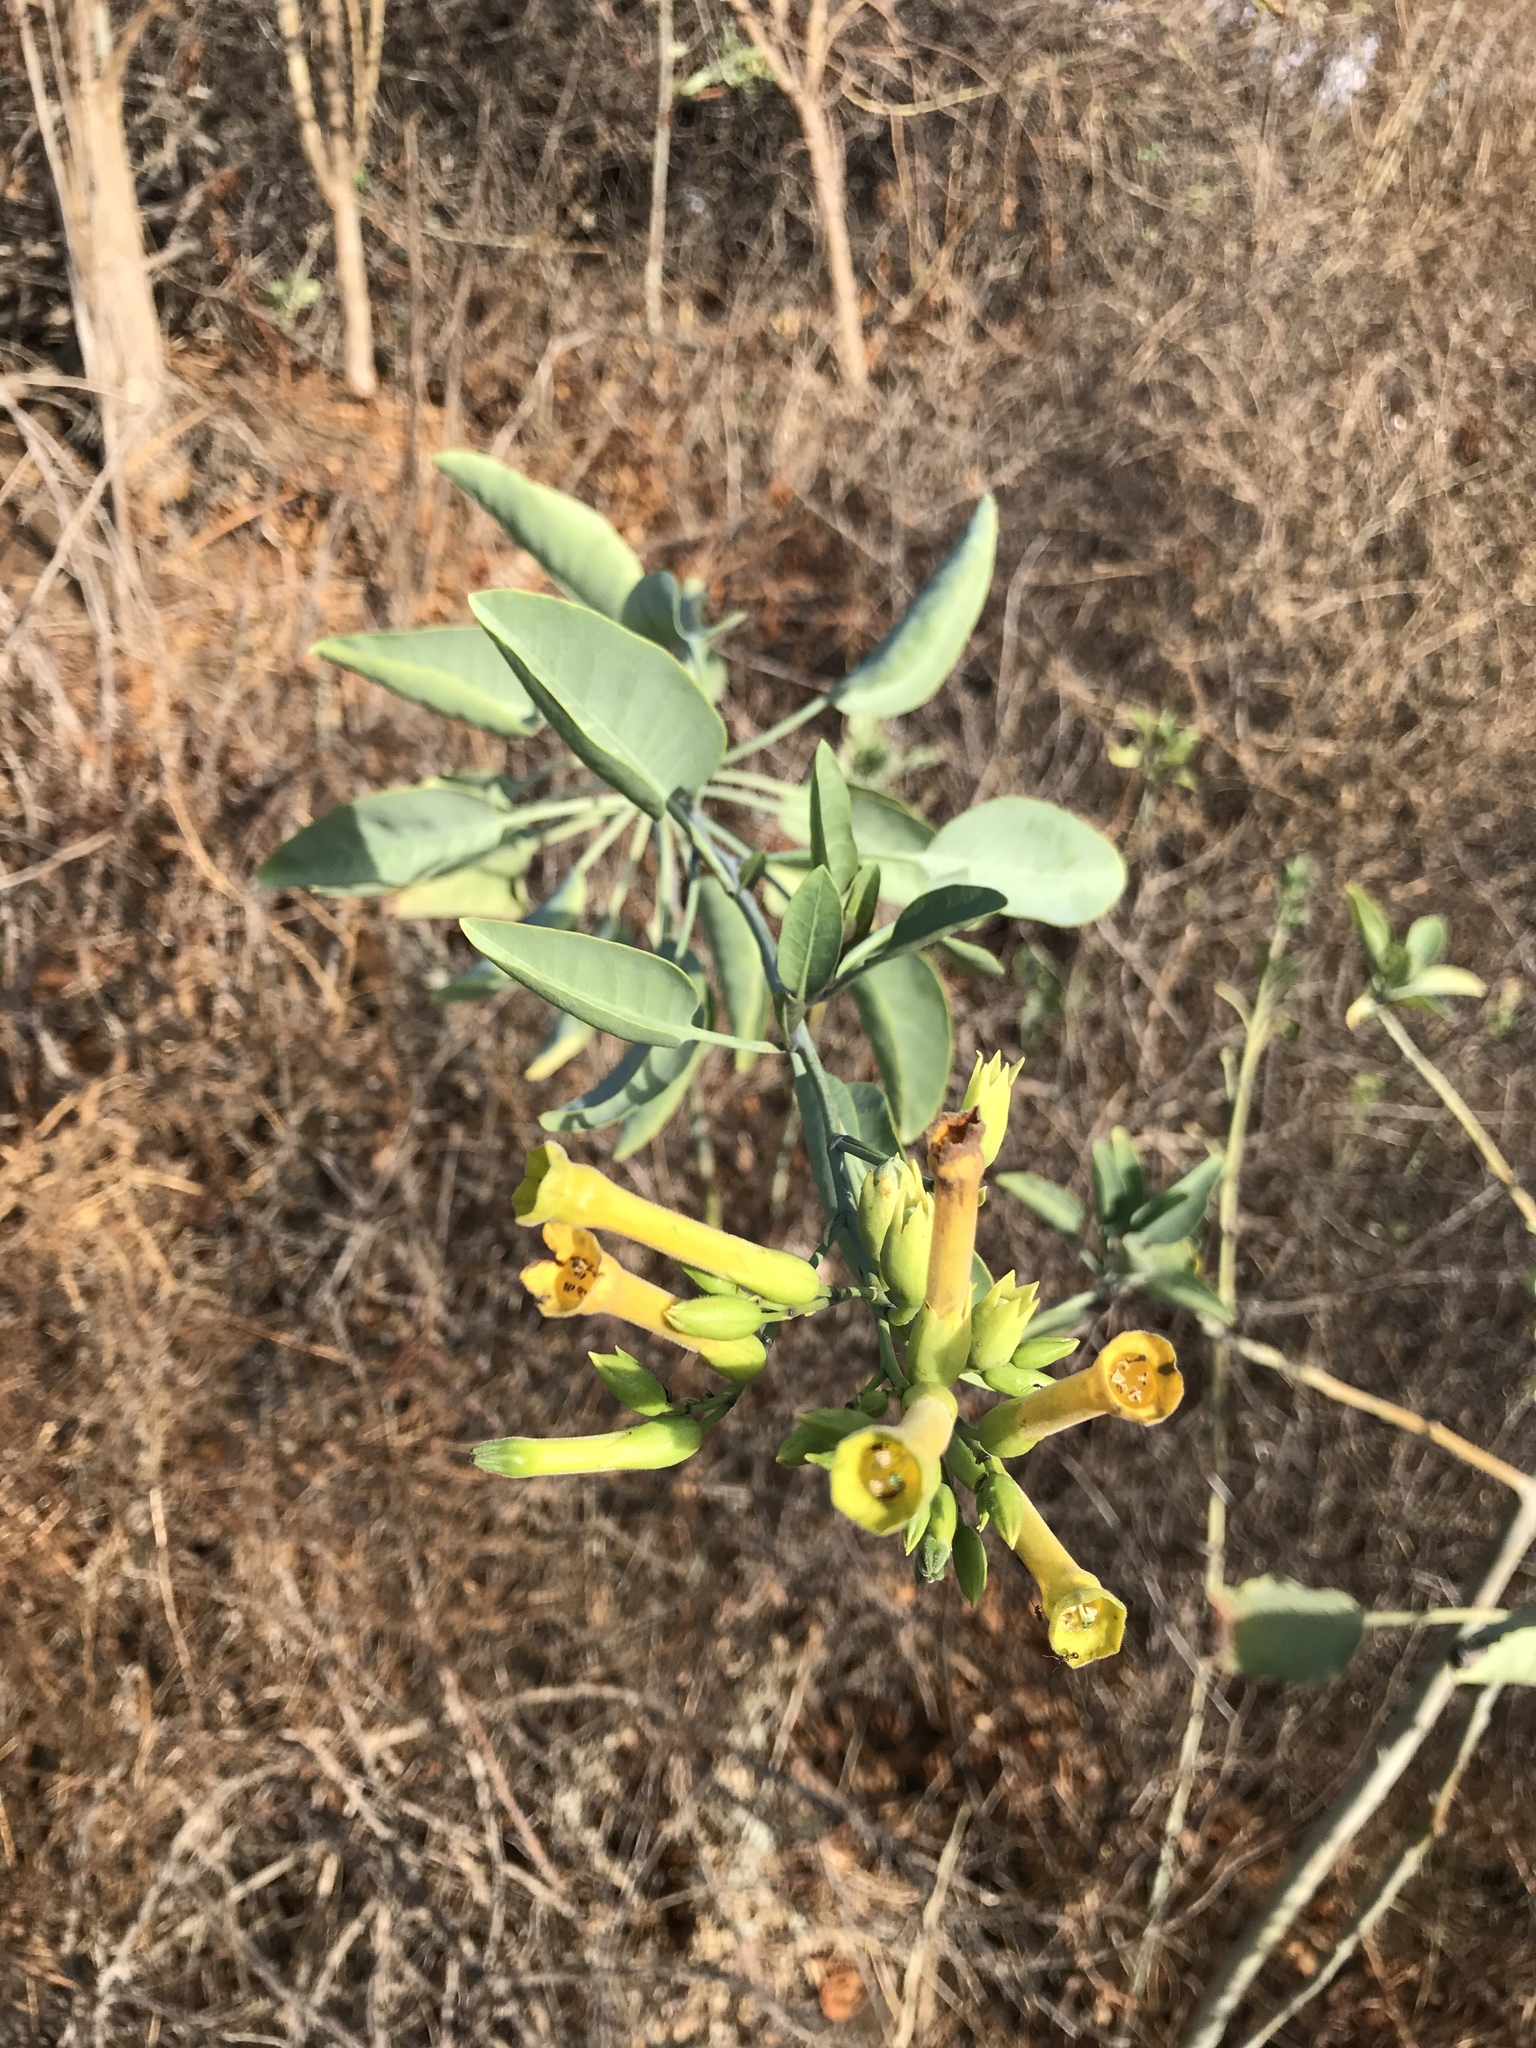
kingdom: Plantae
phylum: Tracheophyta
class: Magnoliopsida
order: Solanales
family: Solanaceae
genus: Nicotiana
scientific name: Nicotiana glauca
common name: Tree tobacco
